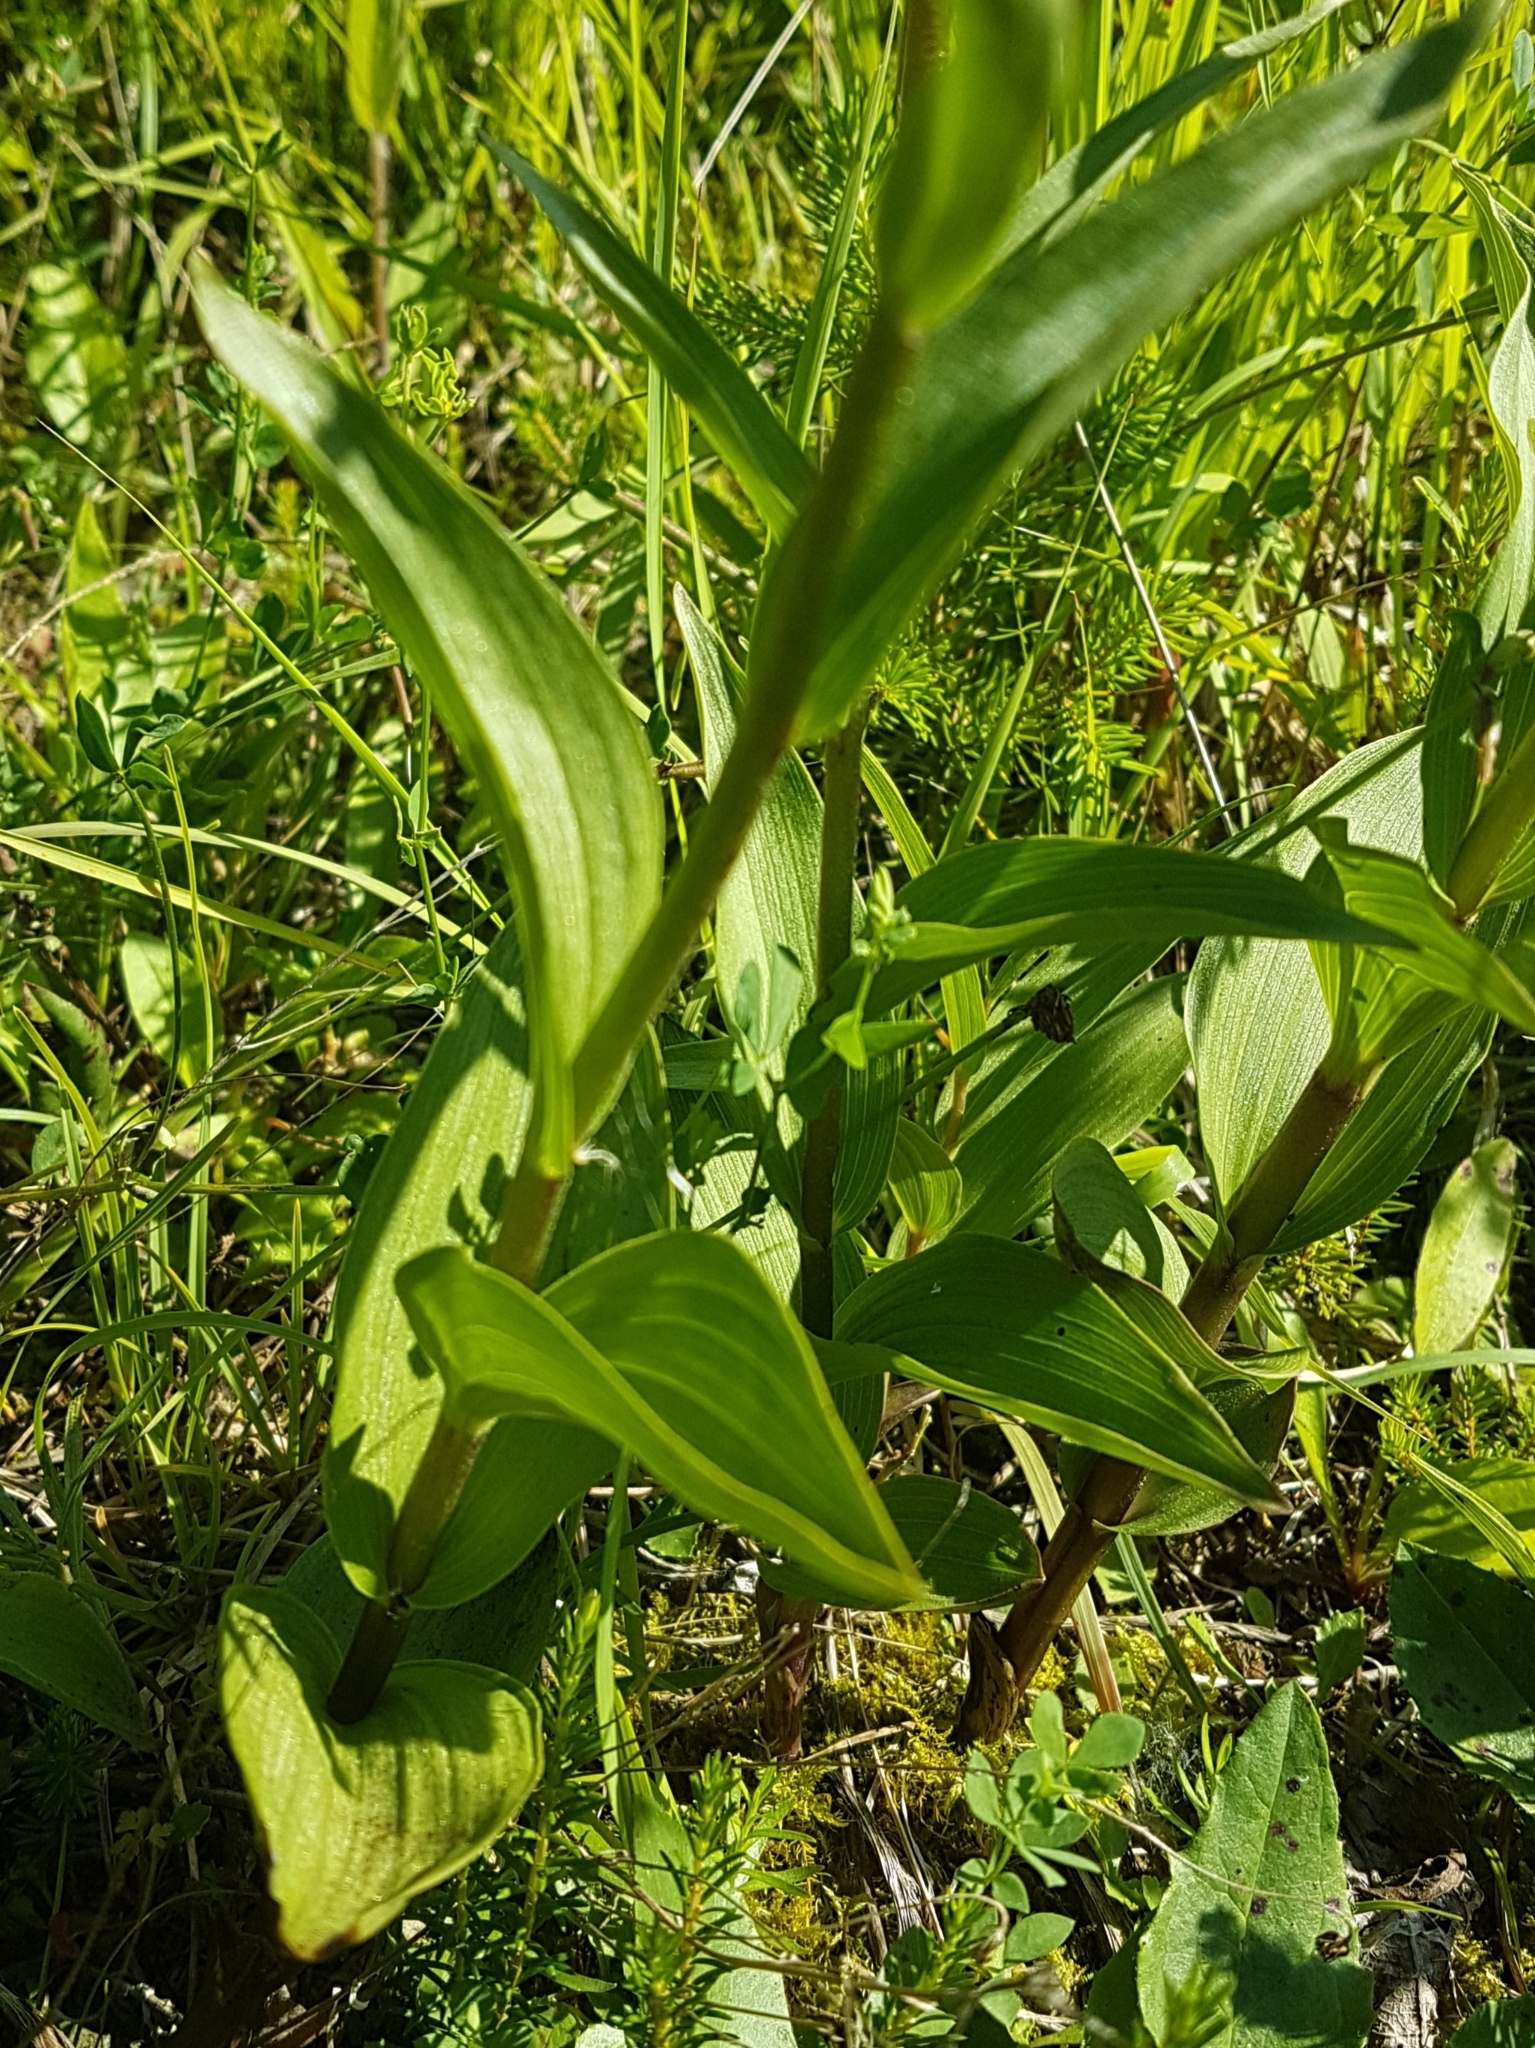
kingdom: Plantae
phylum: Tracheophyta
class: Liliopsida
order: Asparagales
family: Orchidaceae
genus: Epipactis
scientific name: Epipactis atrorubens
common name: Dark-red helleborine
